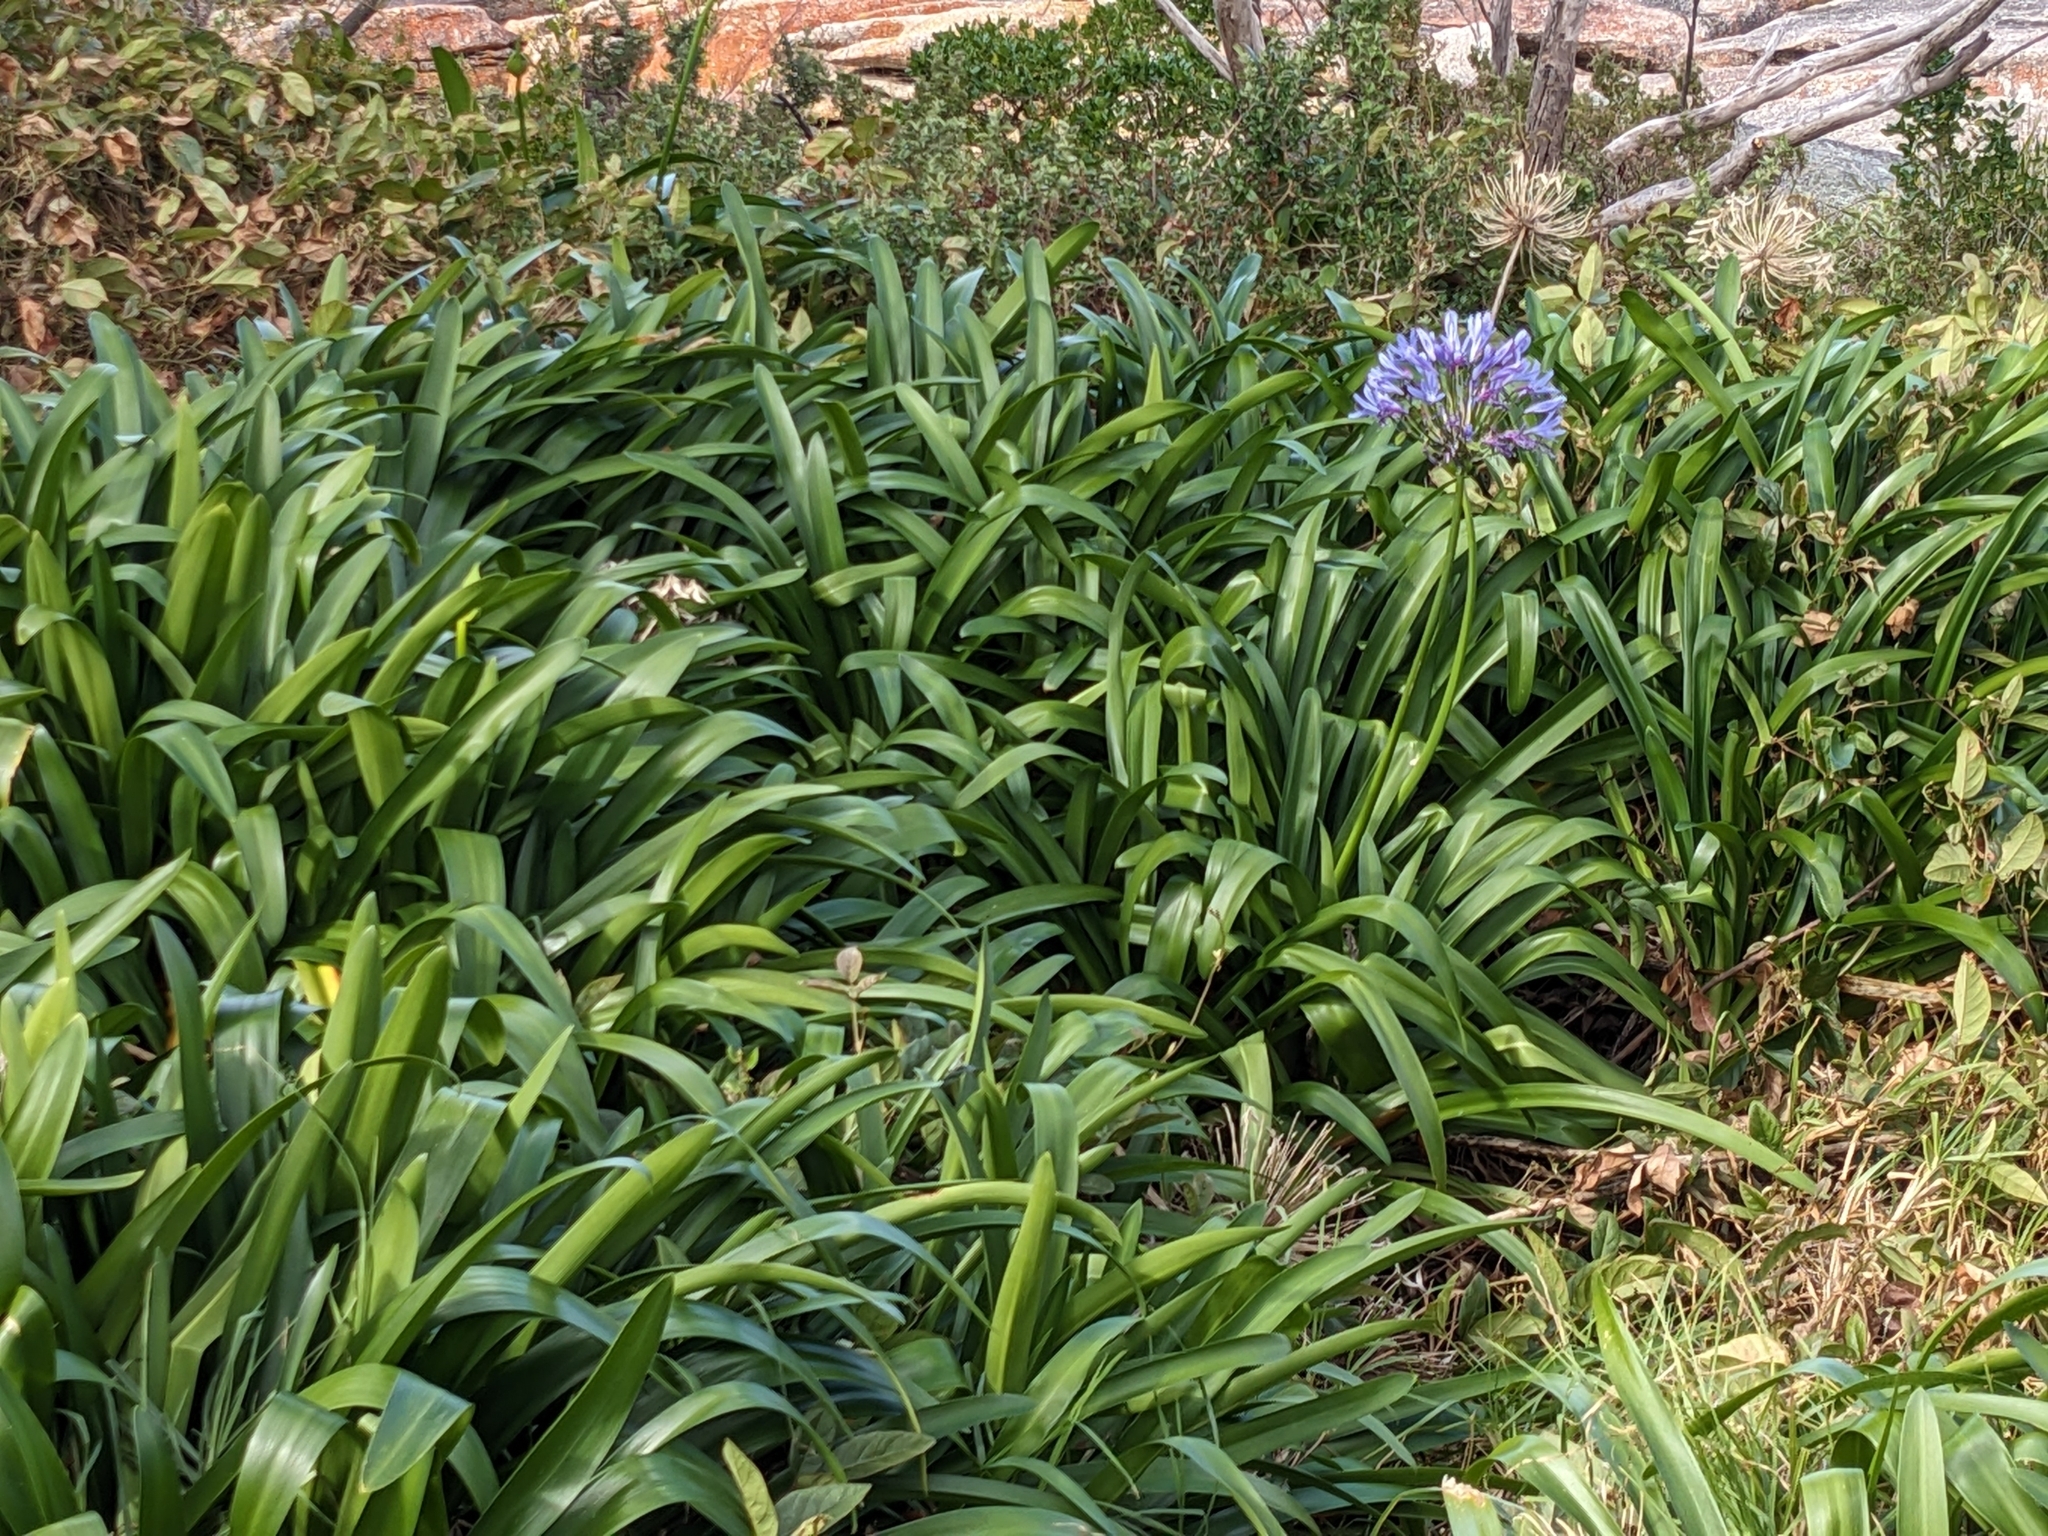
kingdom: Plantae
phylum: Tracheophyta
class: Liliopsida
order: Asparagales
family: Amaryllidaceae
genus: Agapanthus
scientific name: Agapanthus praecox
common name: African-lily
